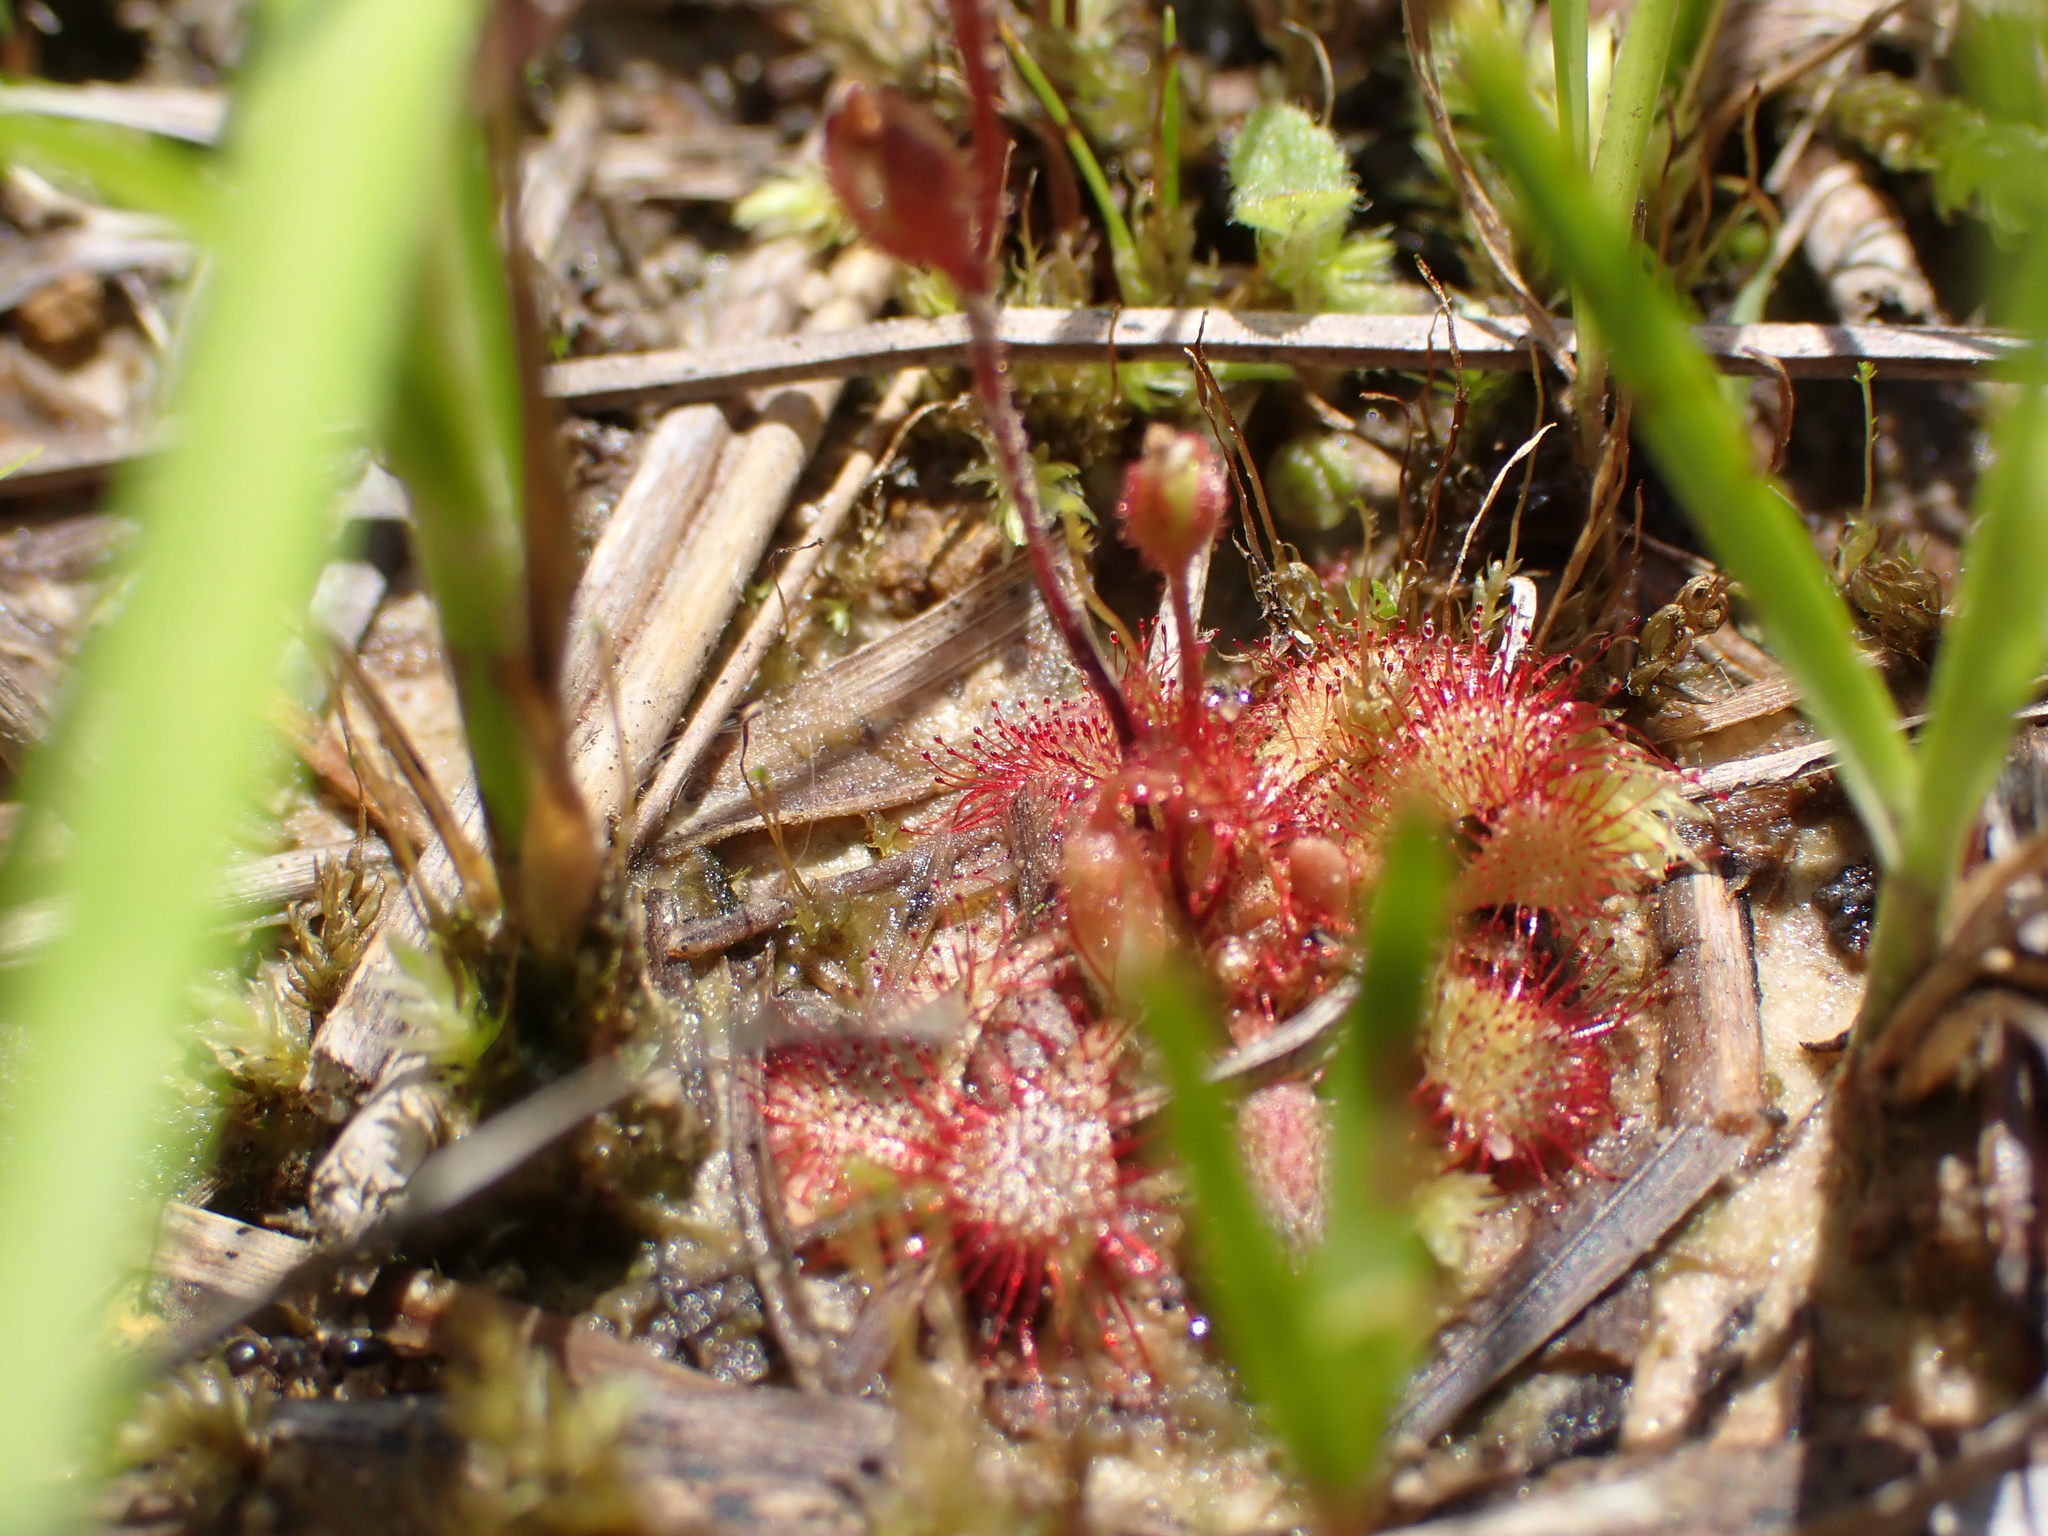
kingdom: Plantae
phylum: Tracheophyta
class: Magnoliopsida
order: Caryophyllales
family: Droseraceae
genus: Drosera
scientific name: Drosera brevifolia
